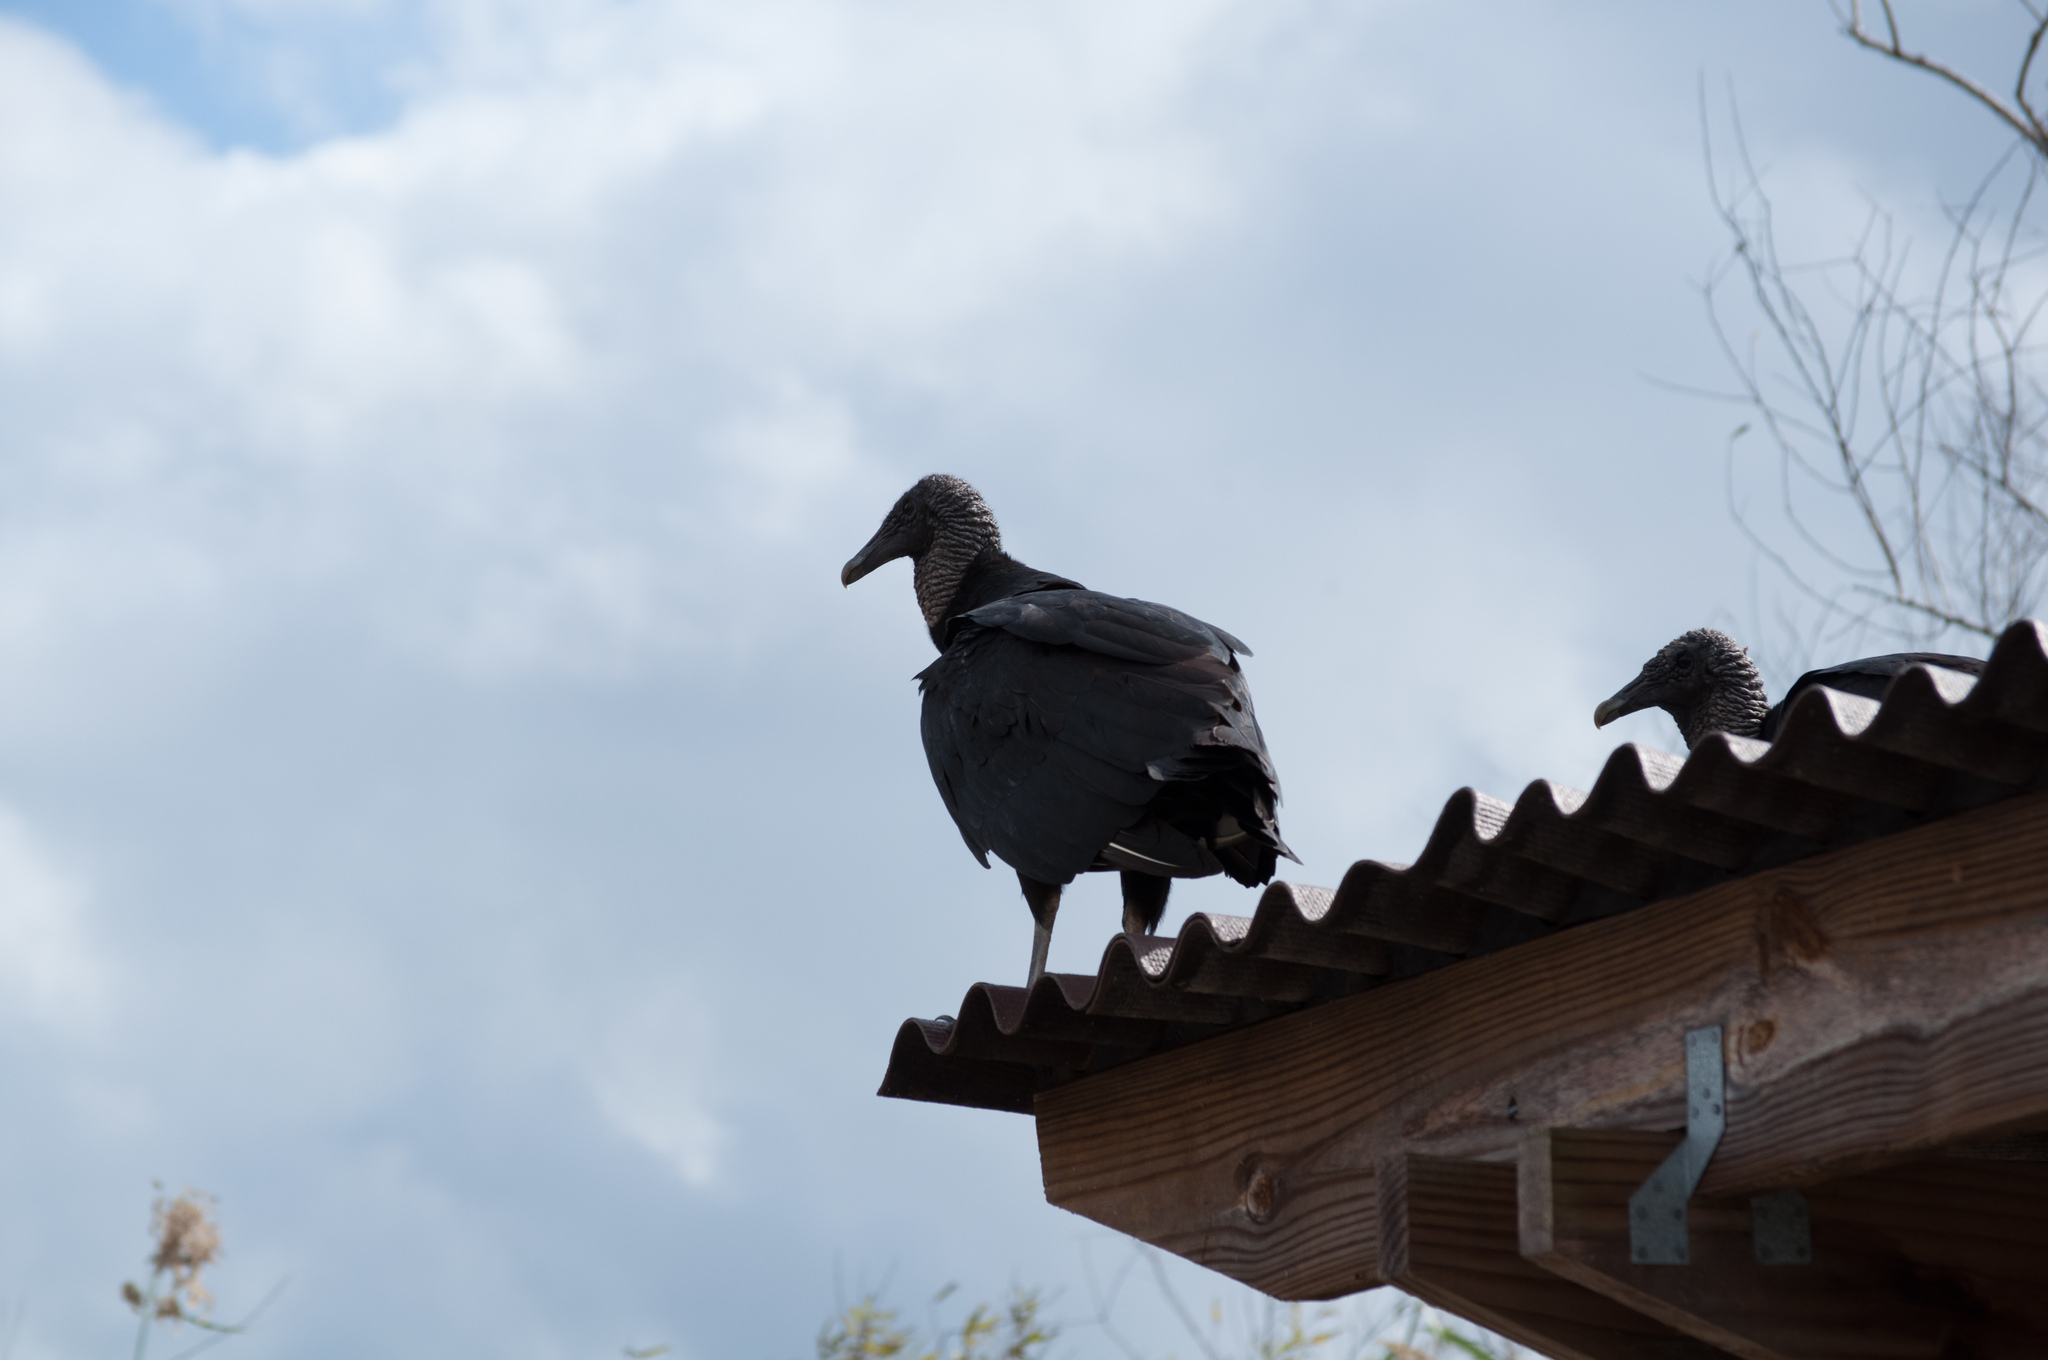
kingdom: Animalia
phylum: Chordata
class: Aves
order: Accipitriformes
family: Cathartidae
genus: Coragyps
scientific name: Coragyps atratus
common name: Black vulture
